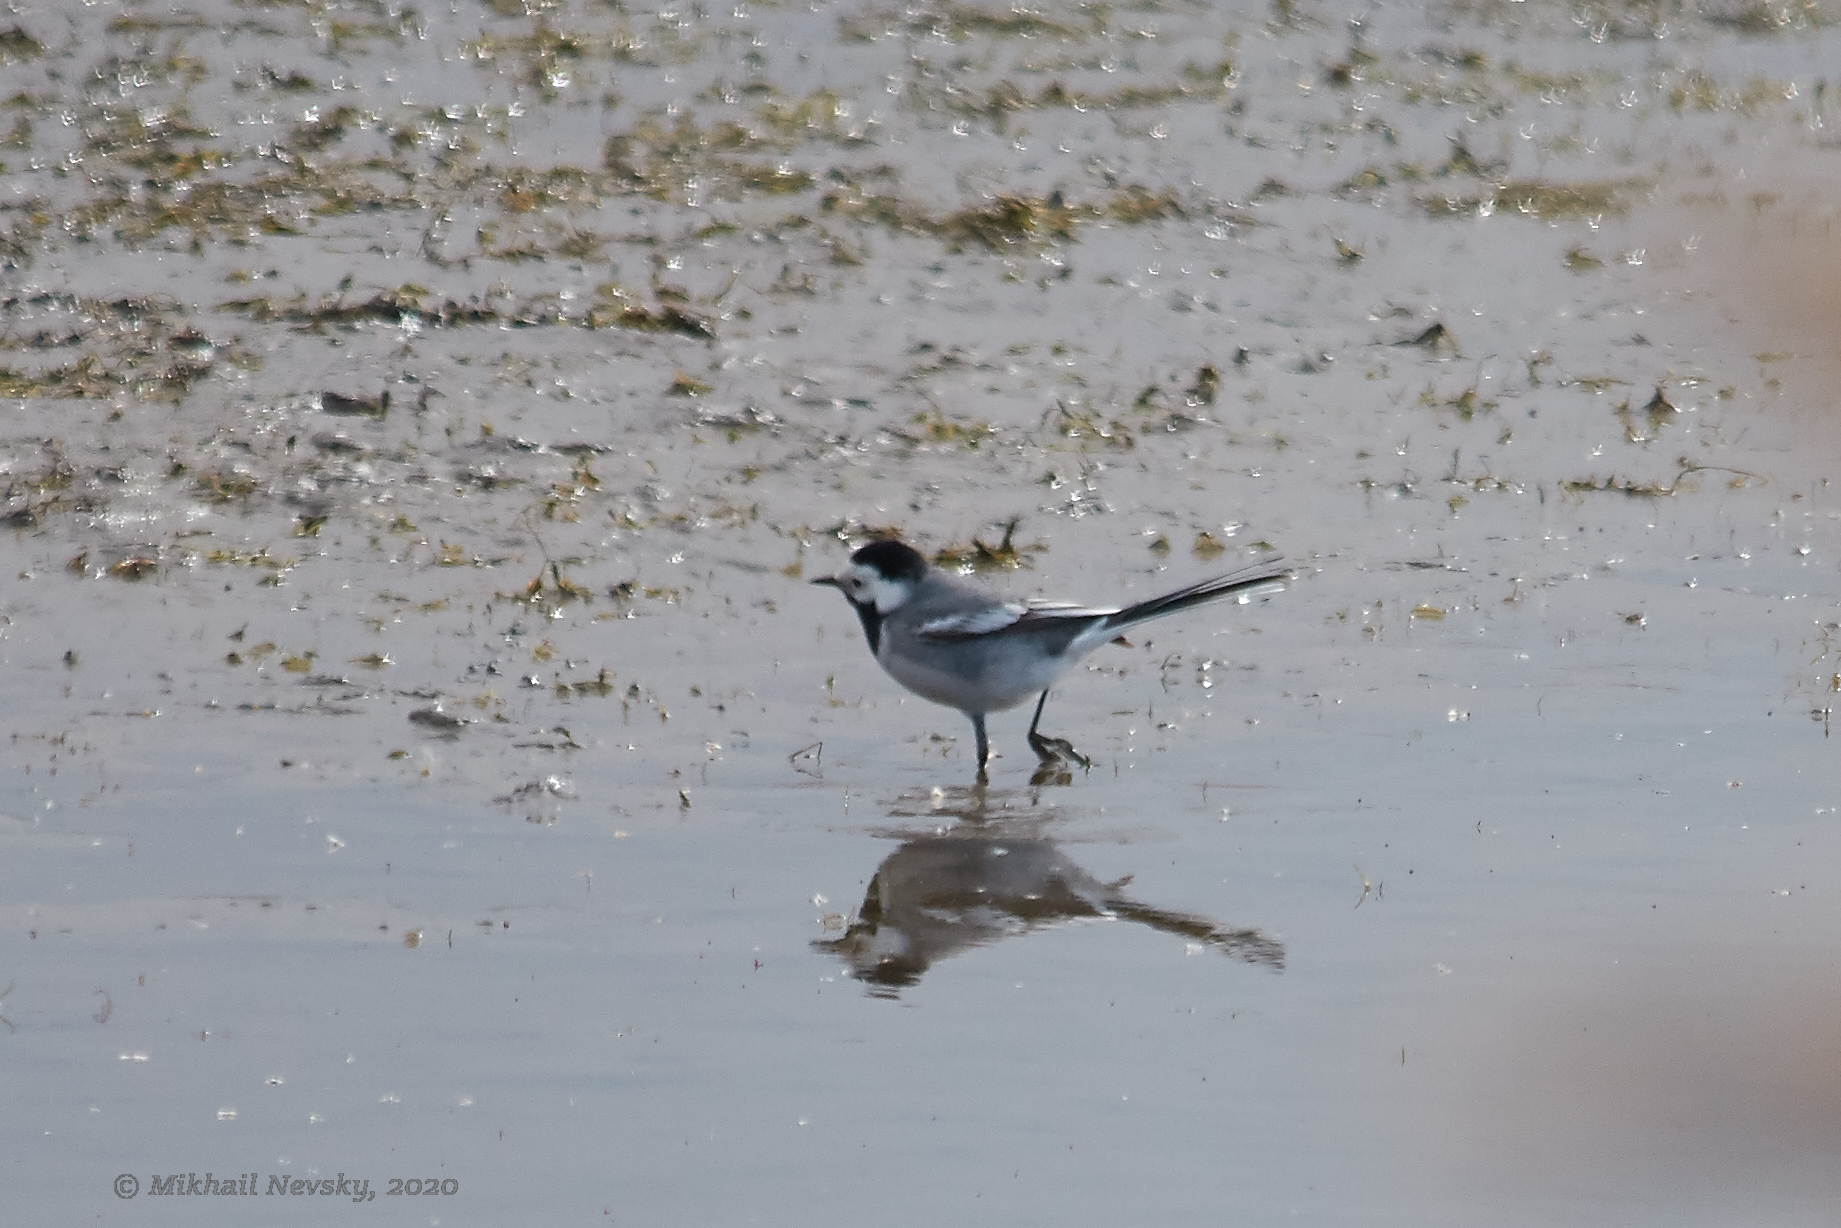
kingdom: Animalia
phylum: Chordata
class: Aves
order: Passeriformes
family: Motacillidae
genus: Motacilla
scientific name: Motacilla alba
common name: White wagtail
